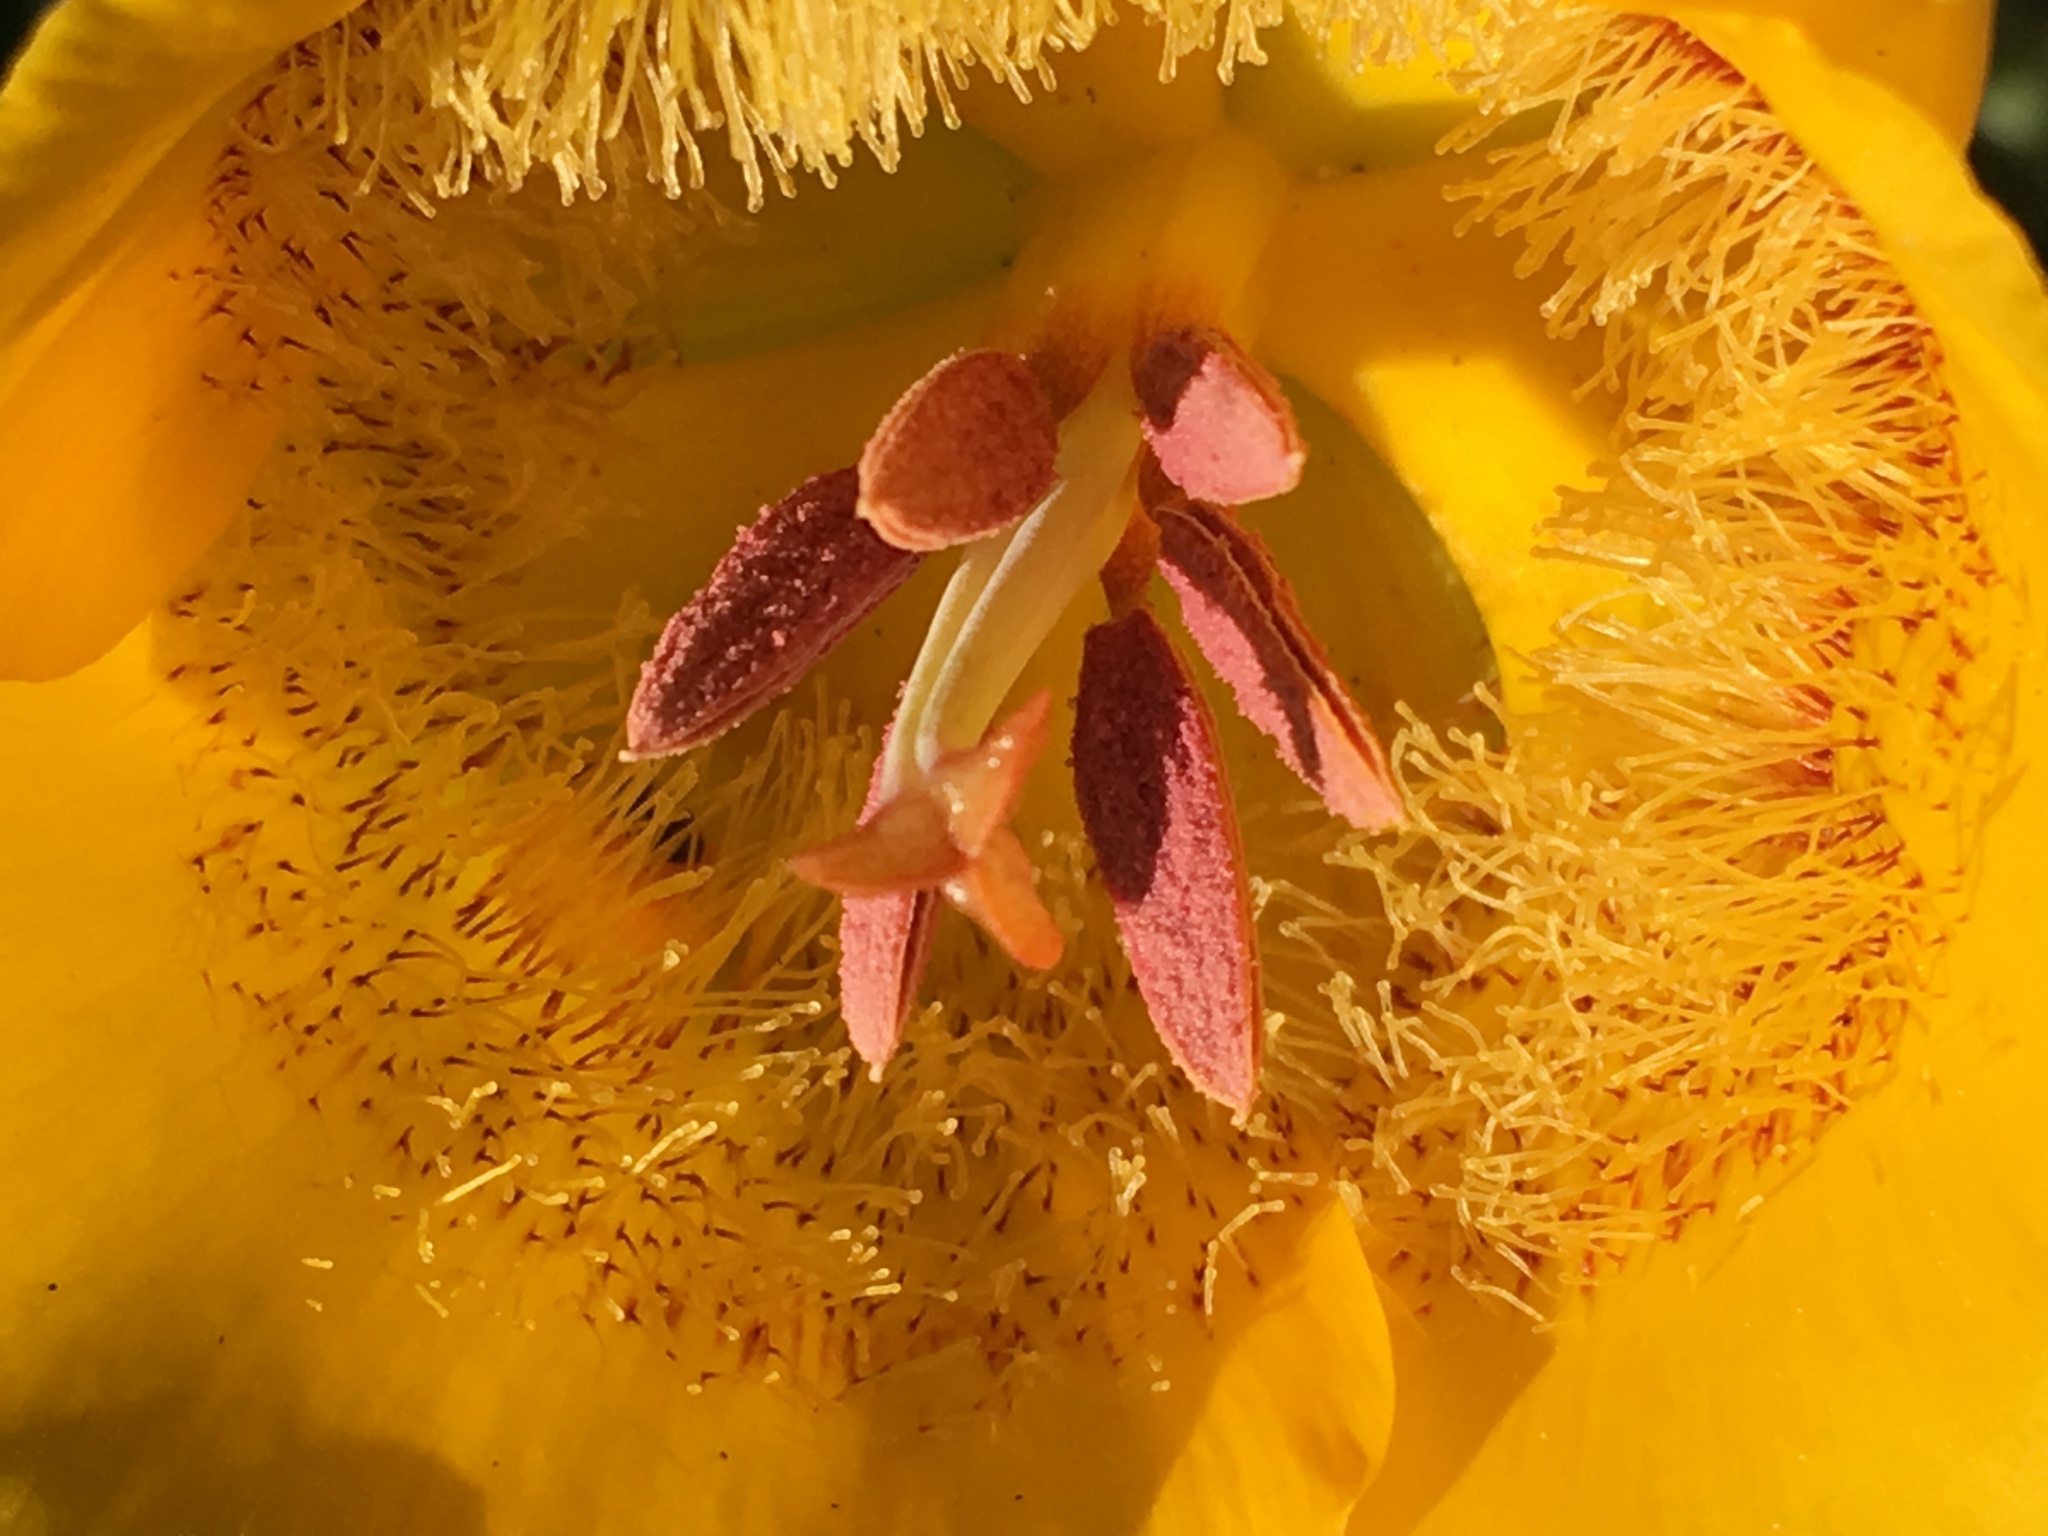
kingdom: Plantae
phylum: Tracheophyta
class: Liliopsida
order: Liliales
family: Liliaceae
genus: Calochortus
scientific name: Calochortus clavatus
